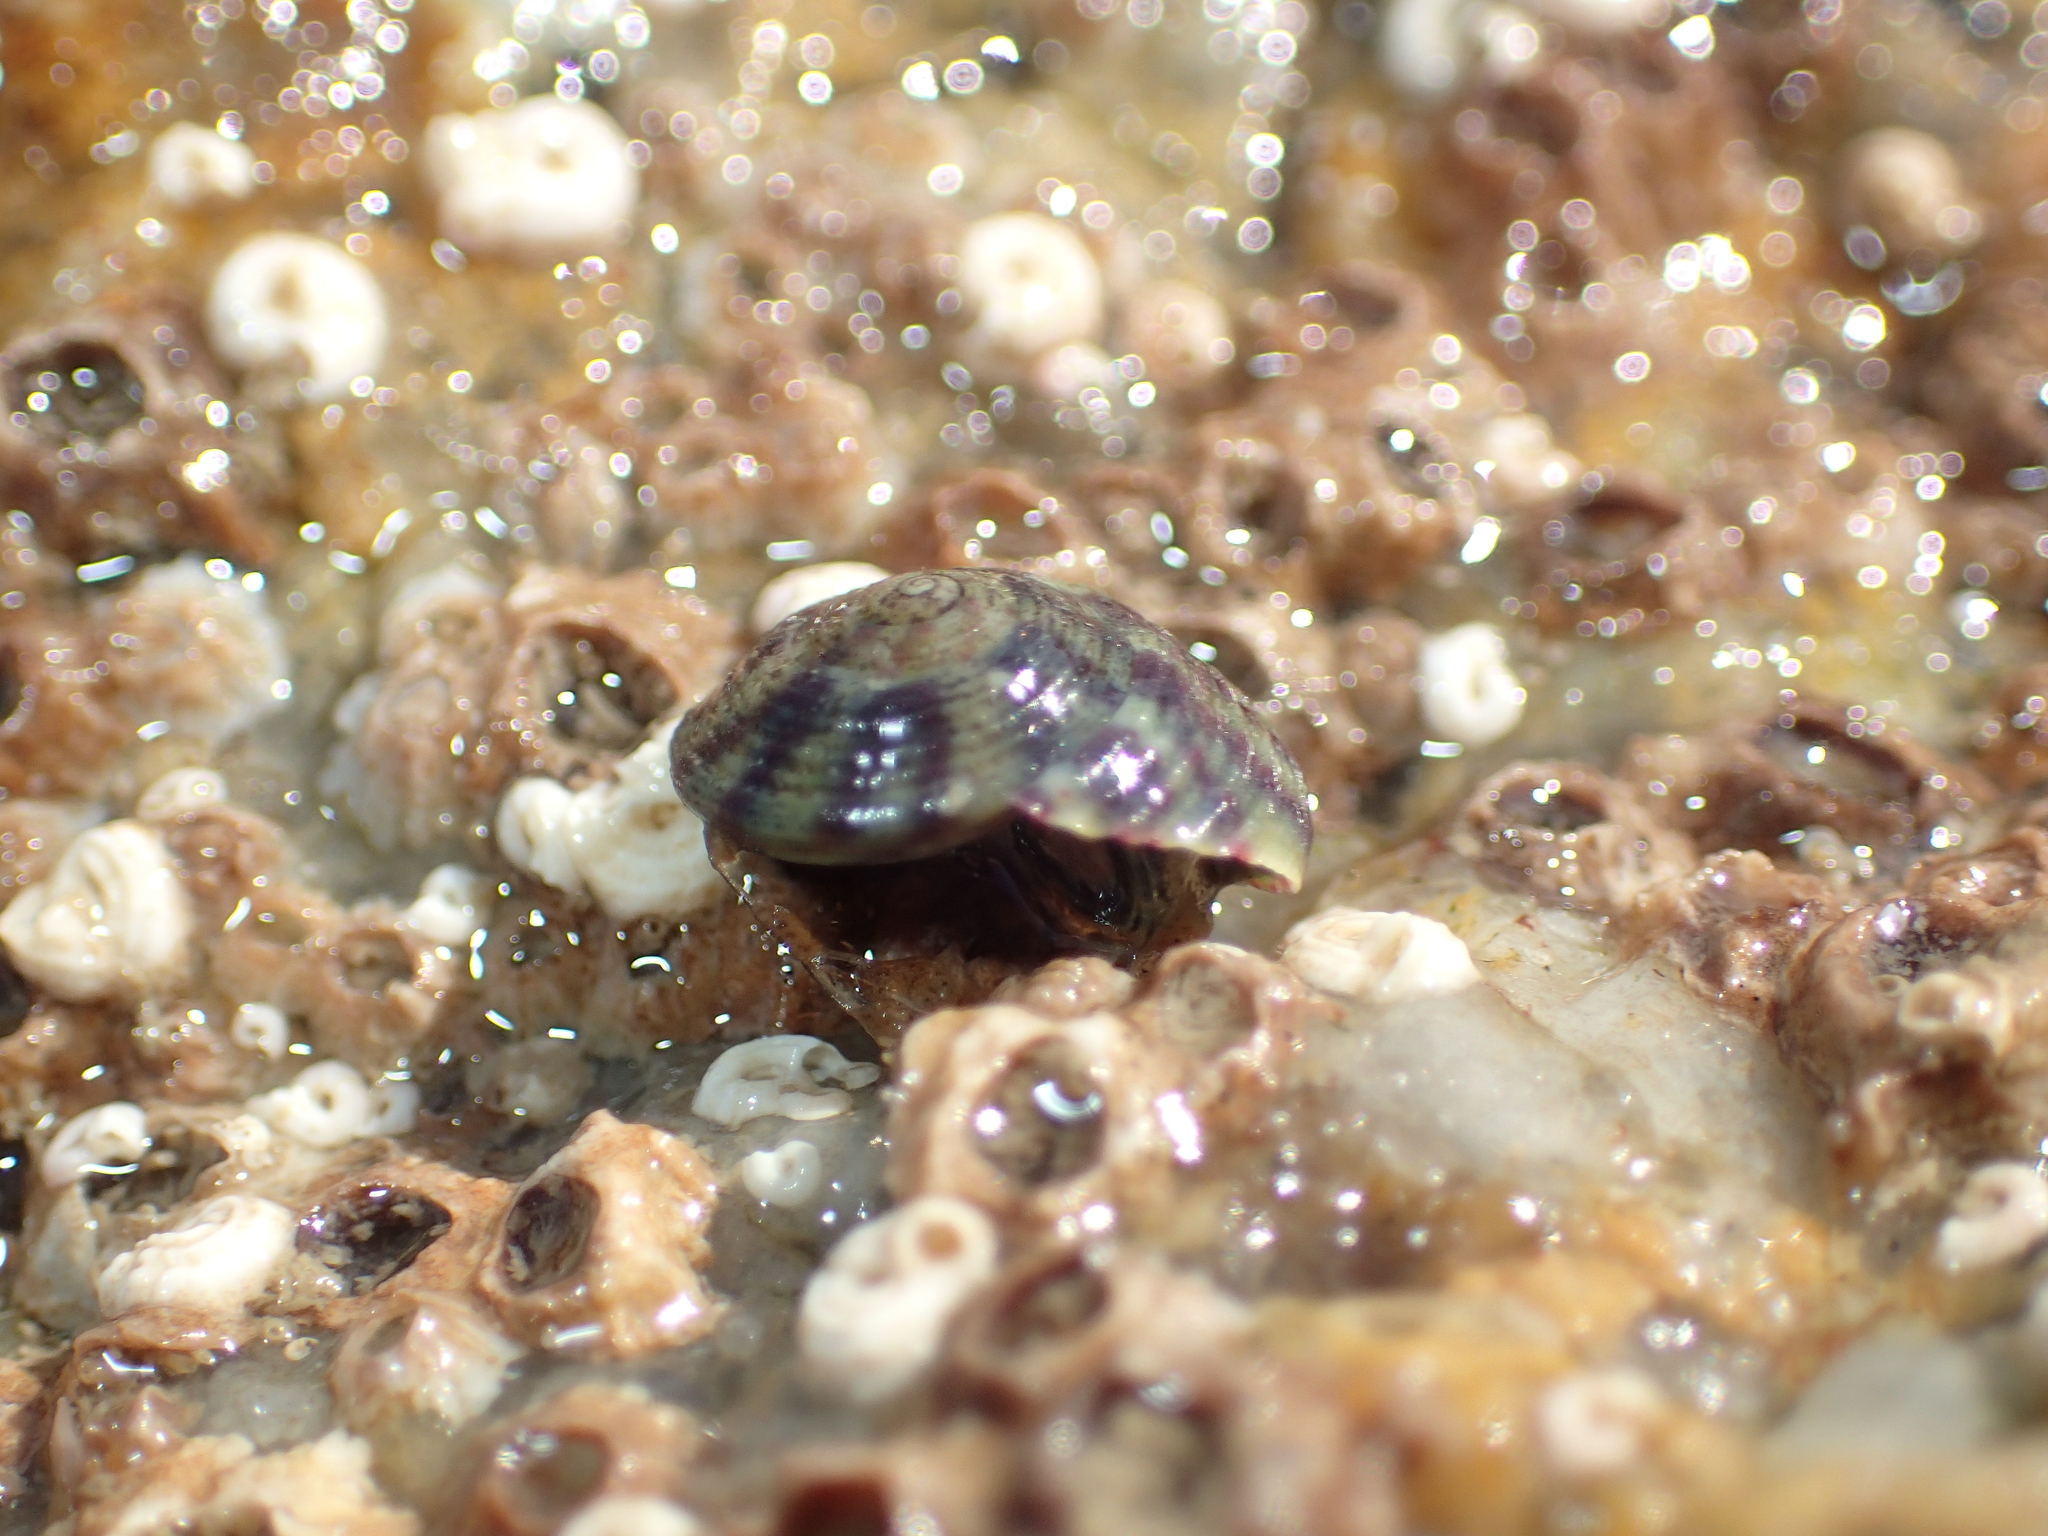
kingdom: Animalia
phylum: Mollusca
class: Gastropoda
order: Trochida
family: Trochidae
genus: Steromphala
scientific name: Steromphala umbilicalis
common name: Flat top shell
